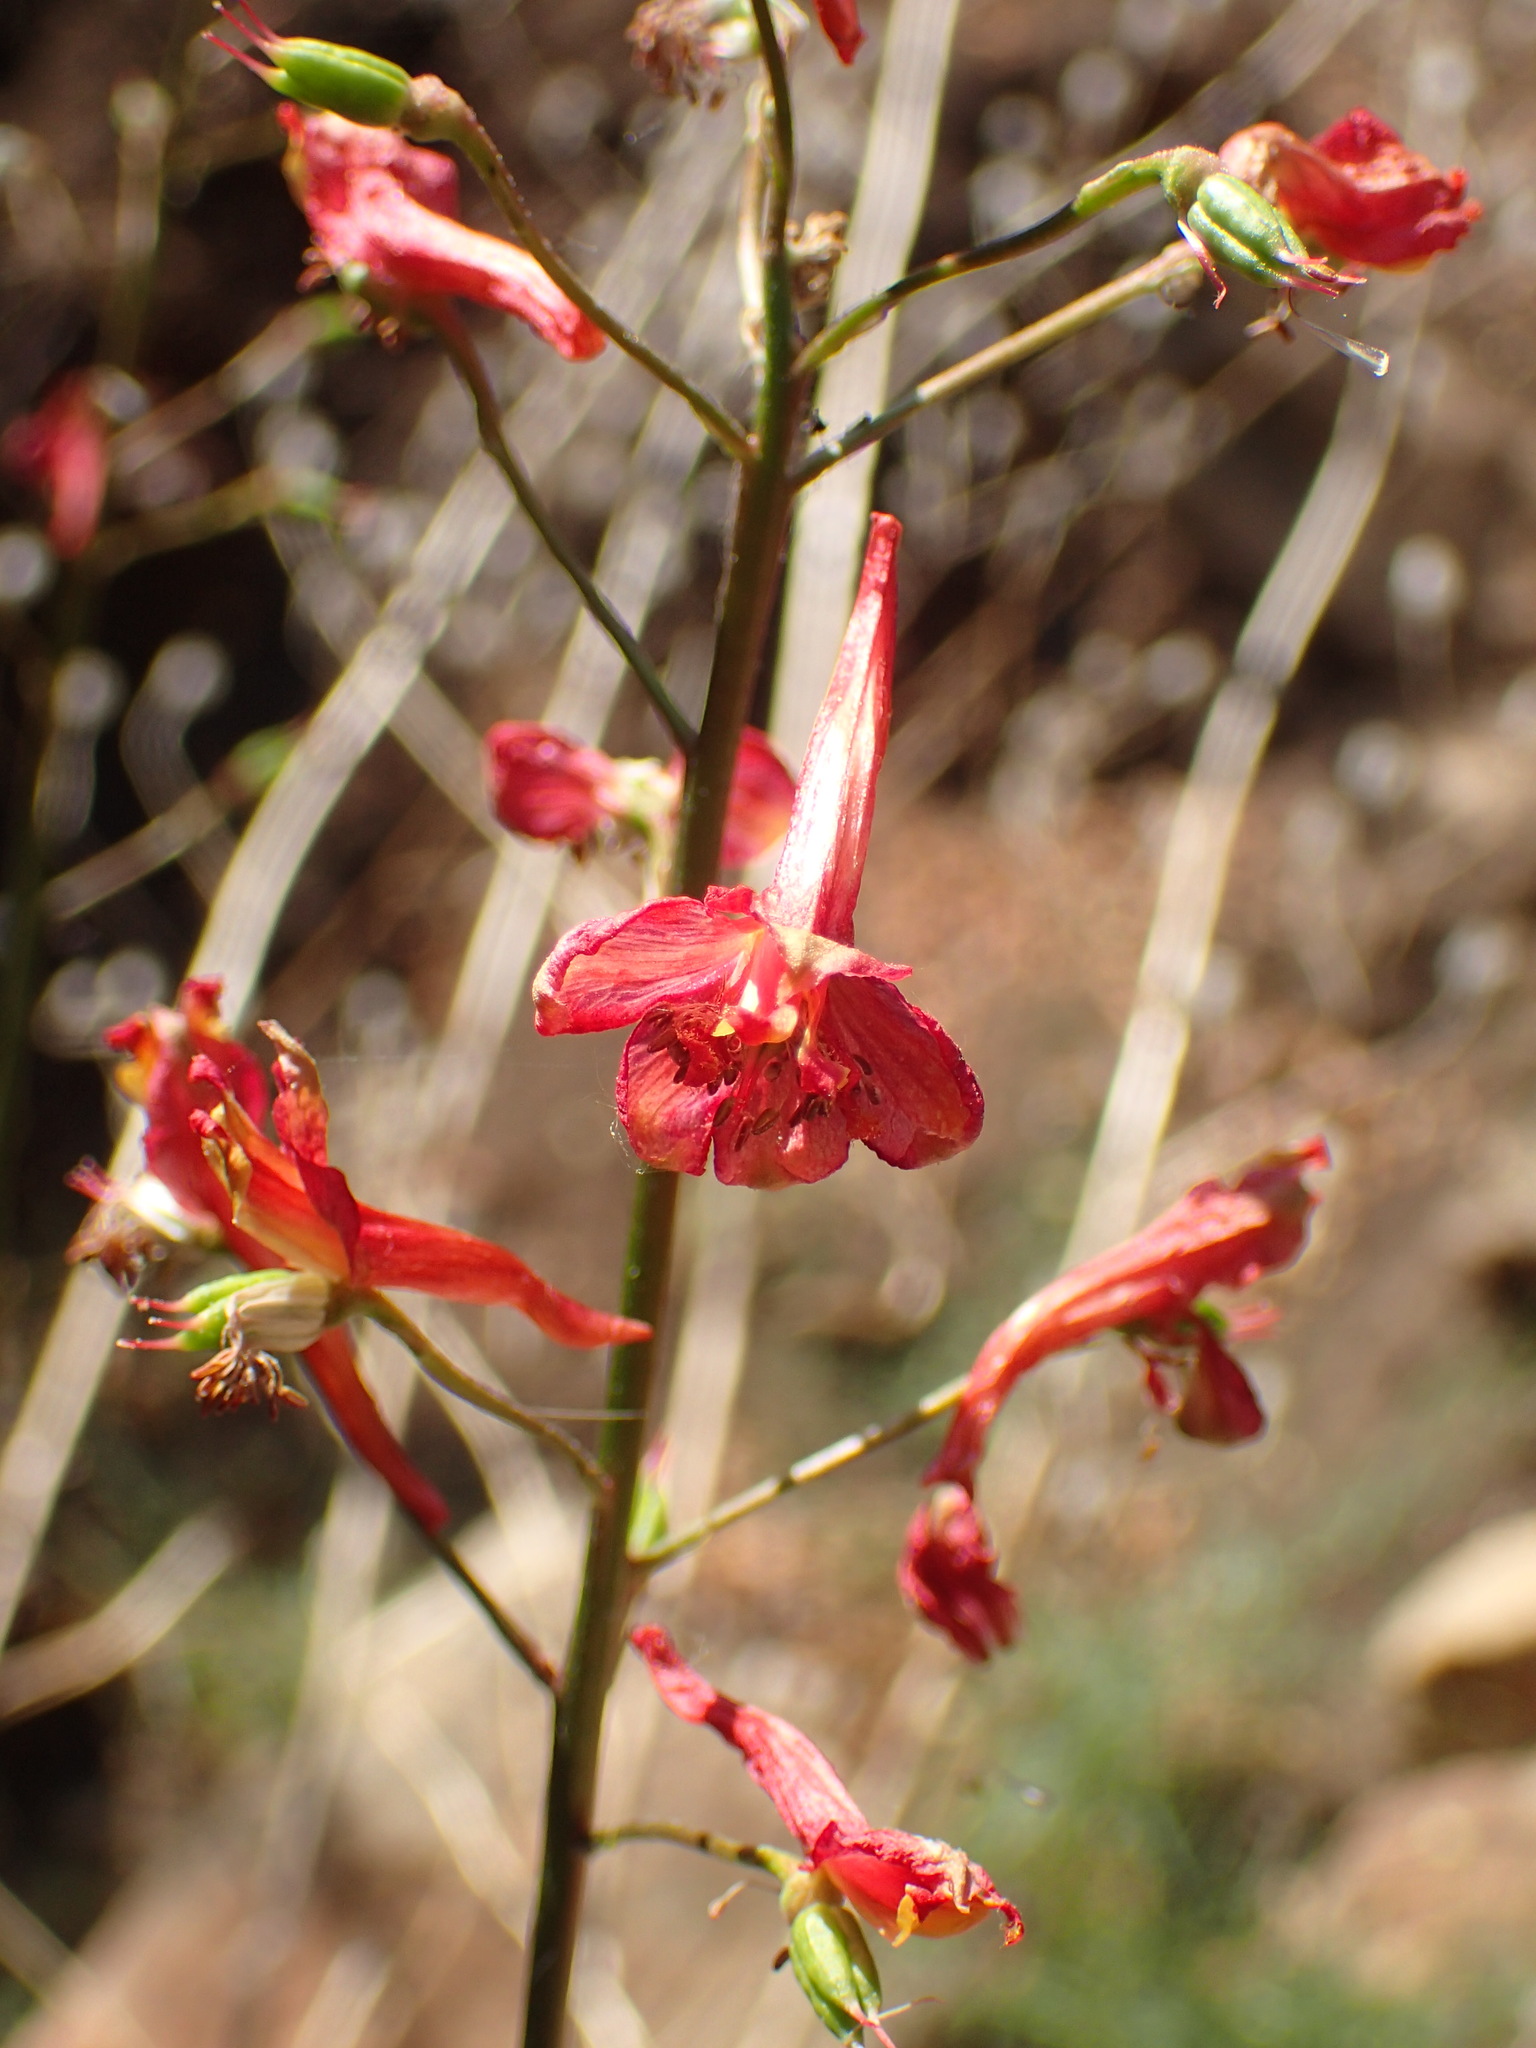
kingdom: Plantae
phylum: Tracheophyta
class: Magnoliopsida
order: Ranunculales
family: Ranunculaceae
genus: Delphinium
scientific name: Delphinium cardinale
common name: Scarlet larkspur
